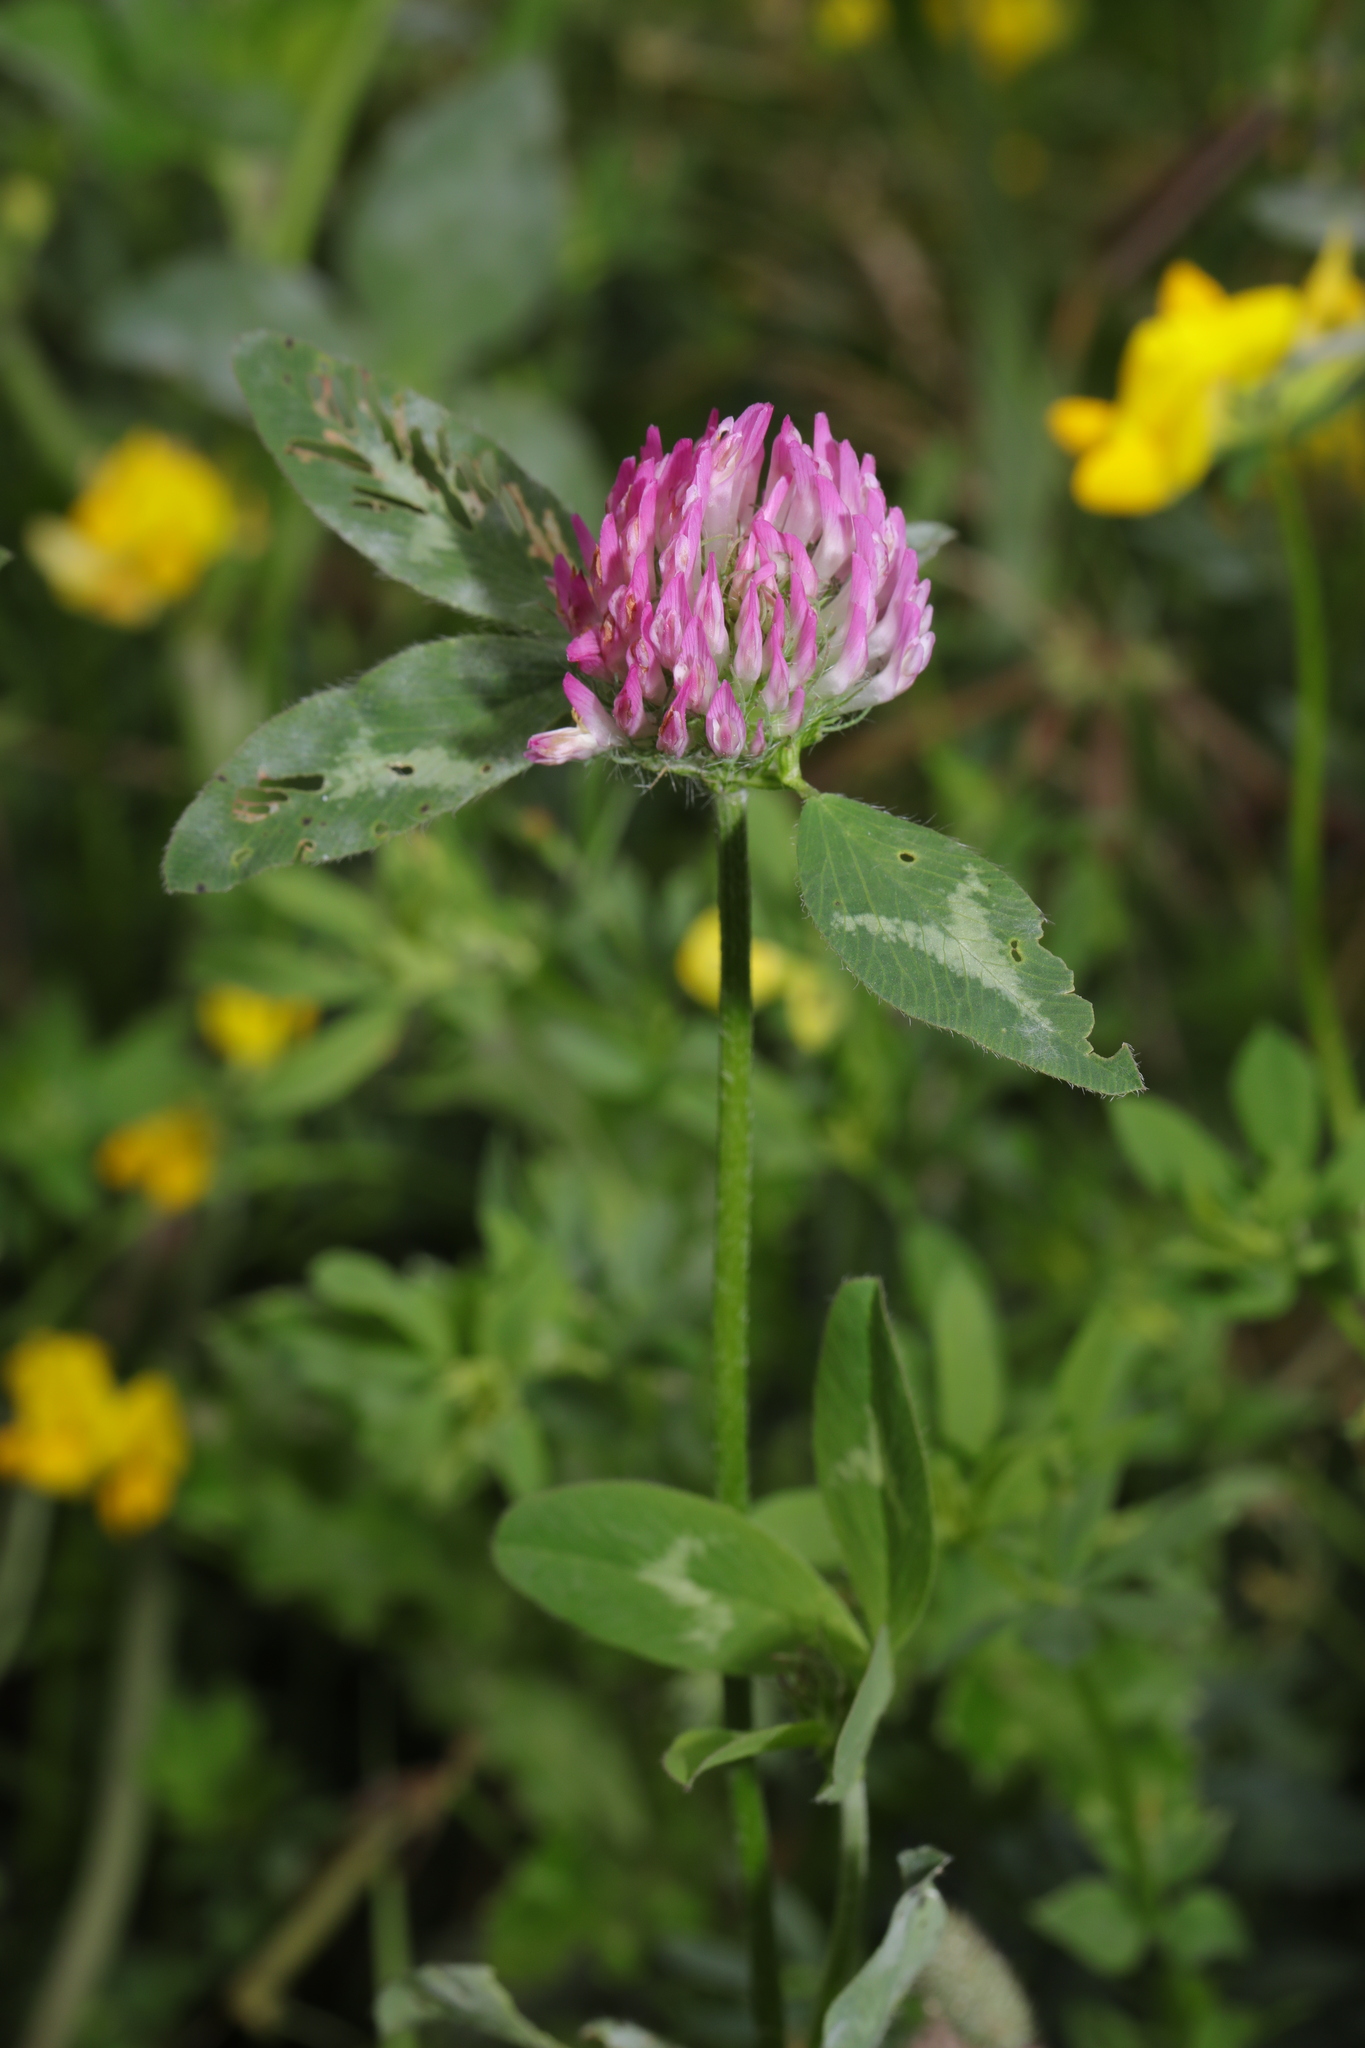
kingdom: Plantae
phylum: Tracheophyta
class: Magnoliopsida
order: Fabales
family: Fabaceae
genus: Trifolium
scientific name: Trifolium pratense
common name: Red clover
